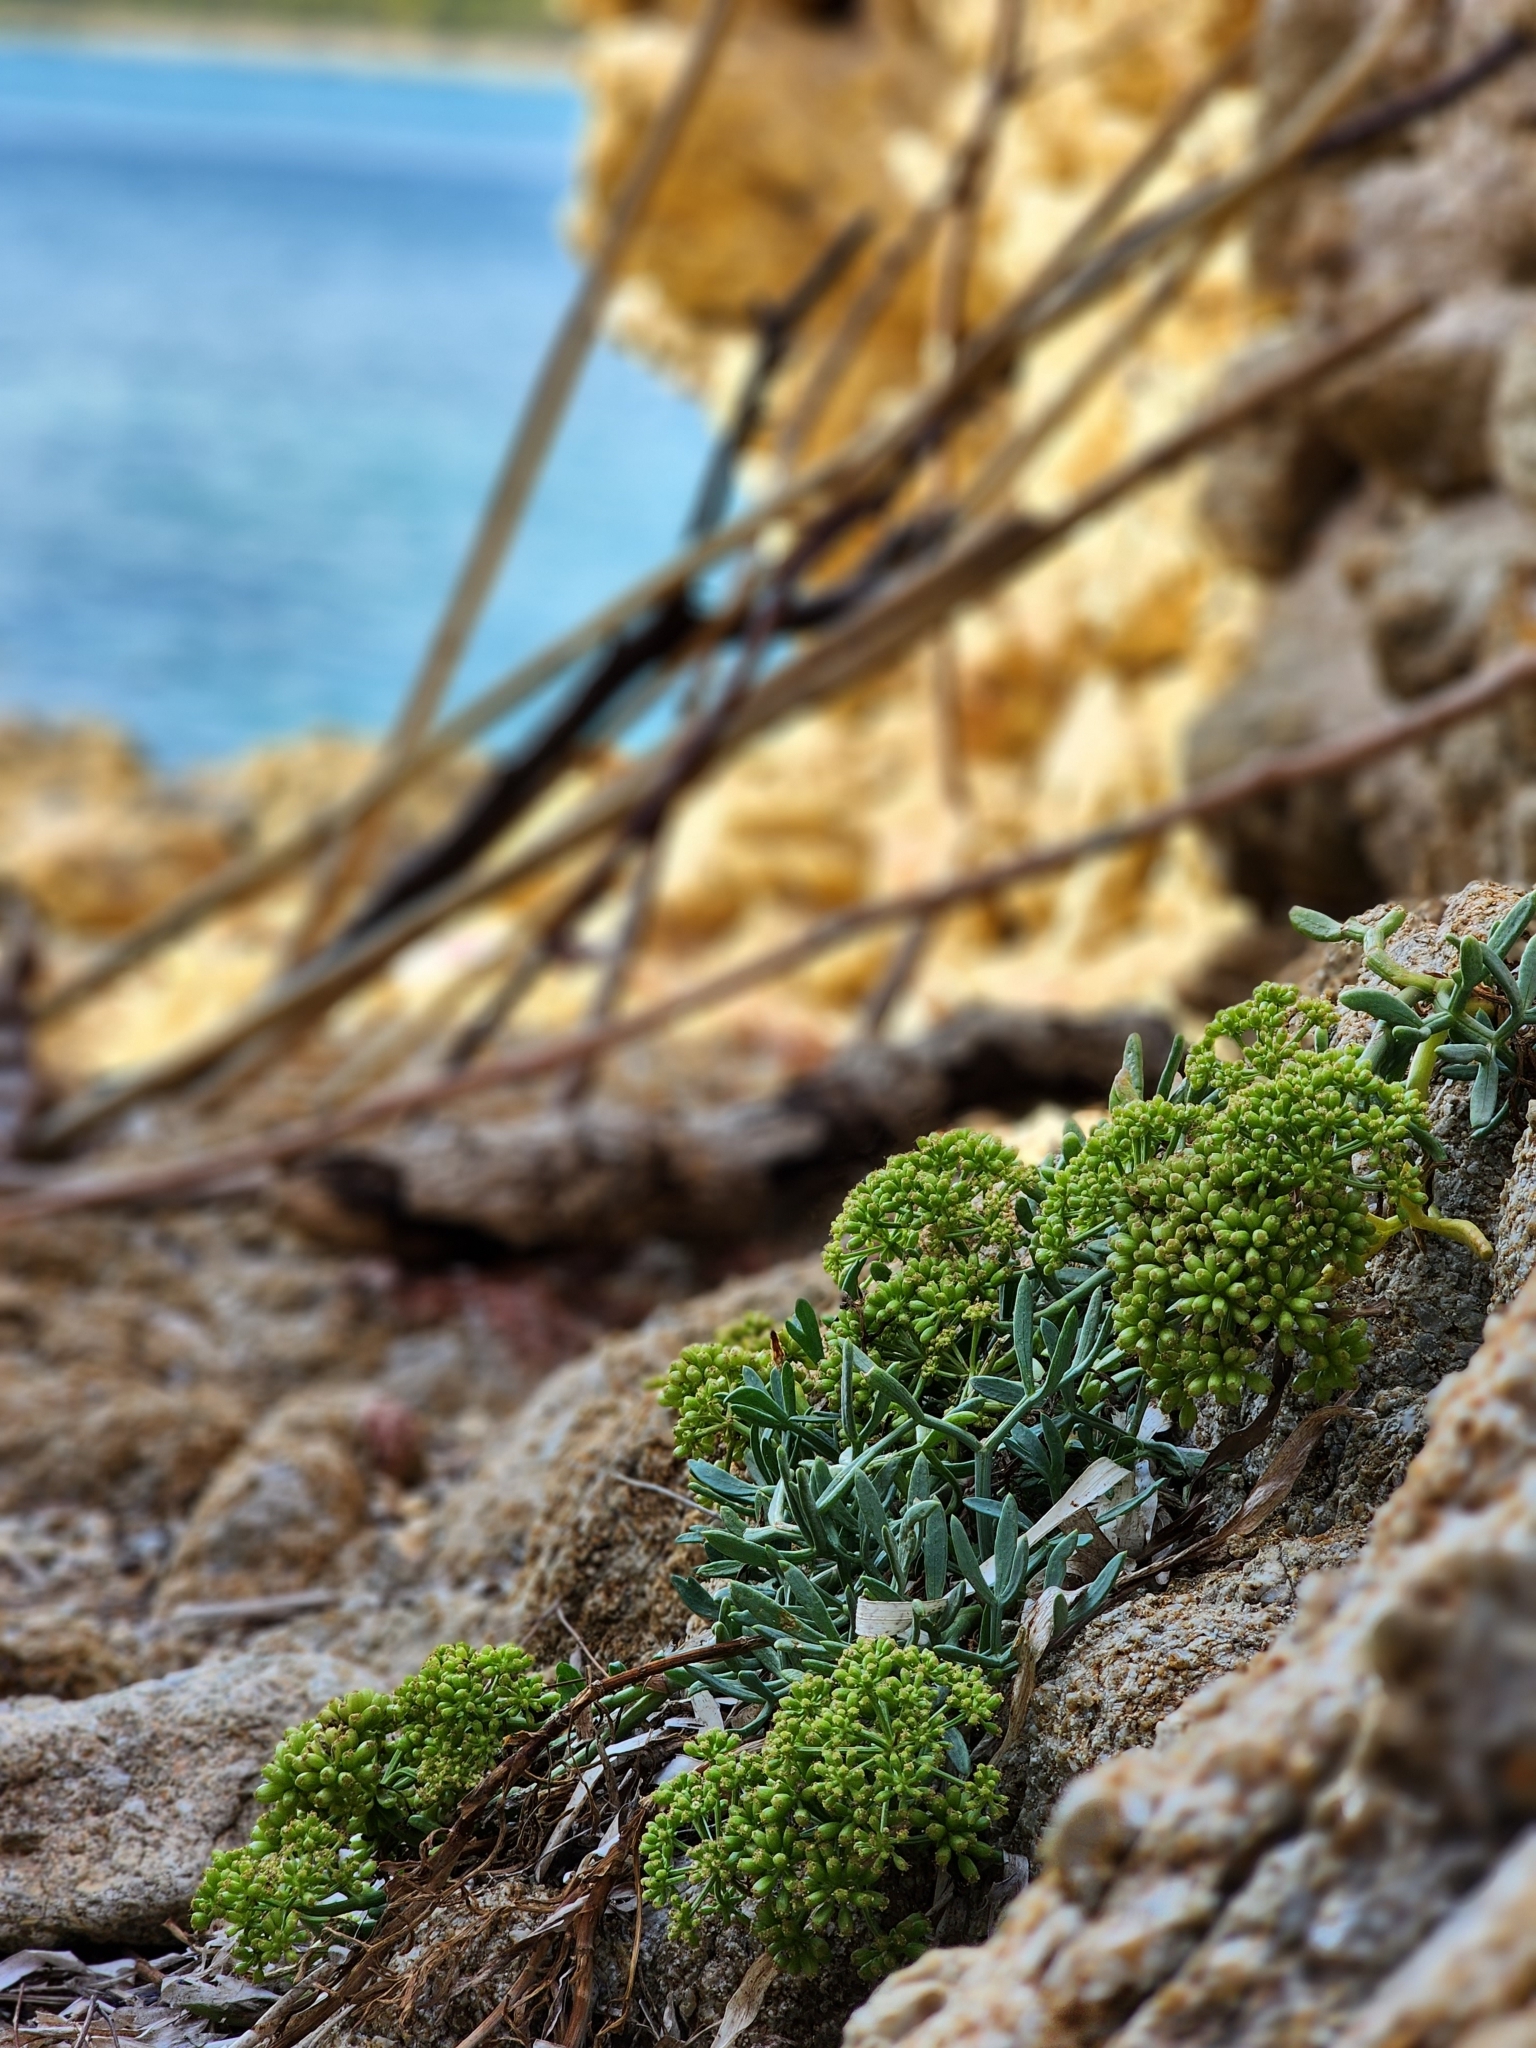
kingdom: Plantae
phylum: Tracheophyta
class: Magnoliopsida
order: Apiales
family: Apiaceae
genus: Crithmum
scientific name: Crithmum maritimum
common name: Rock samphire
